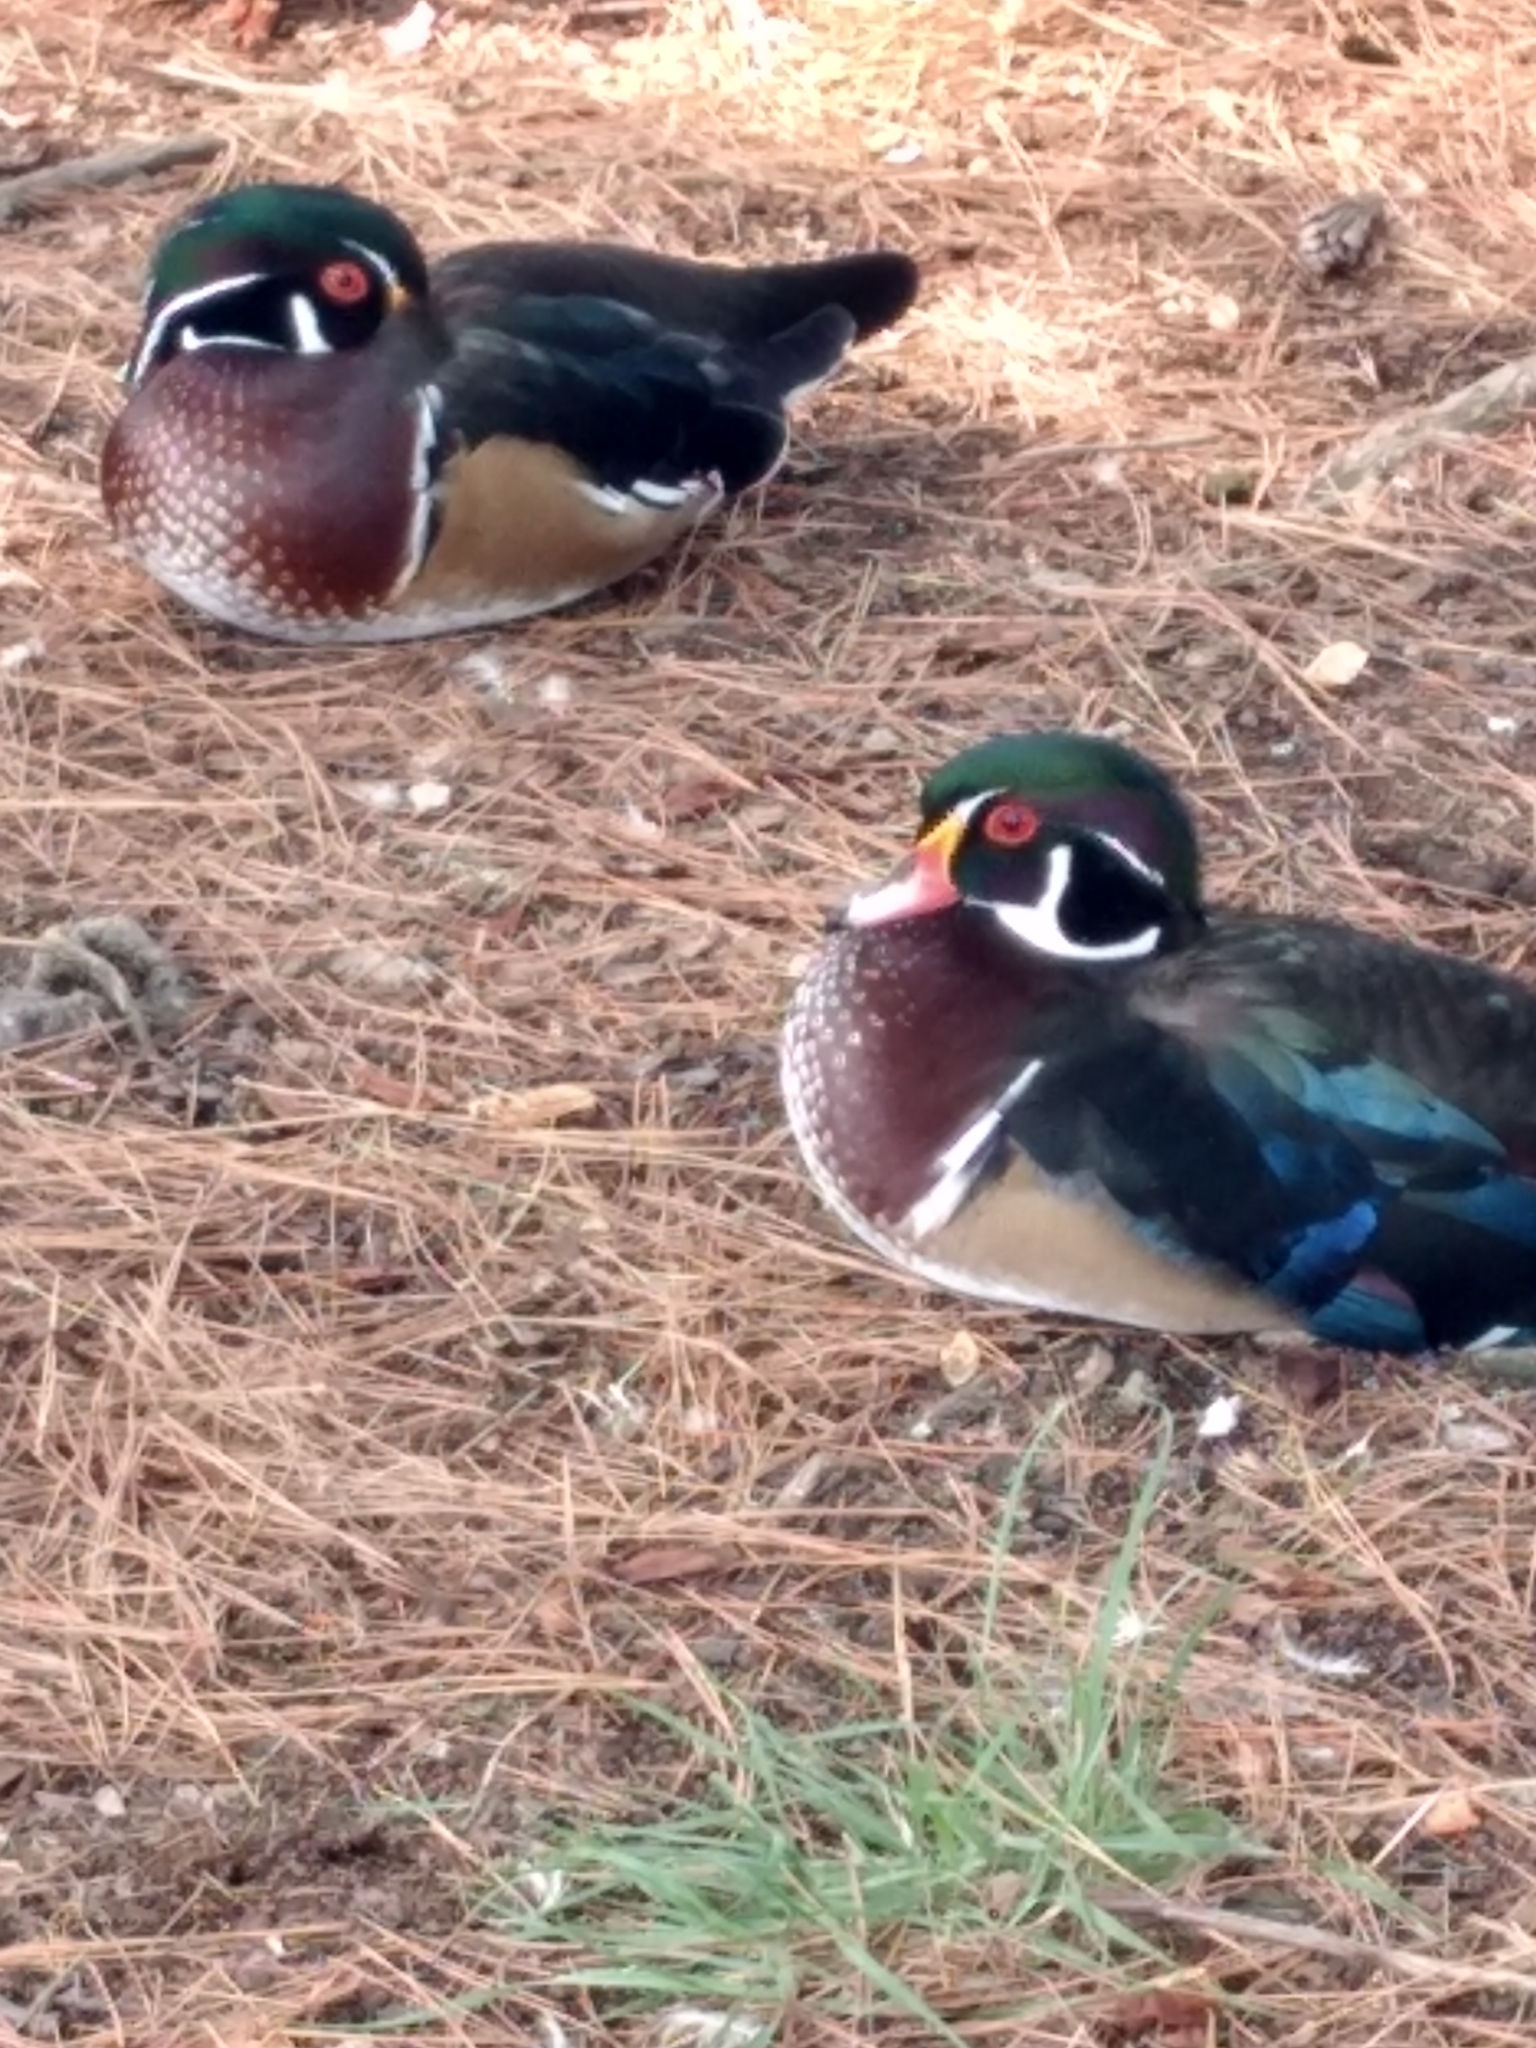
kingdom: Animalia
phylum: Chordata
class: Aves
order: Anseriformes
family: Anatidae
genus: Aix
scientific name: Aix sponsa
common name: Wood duck
